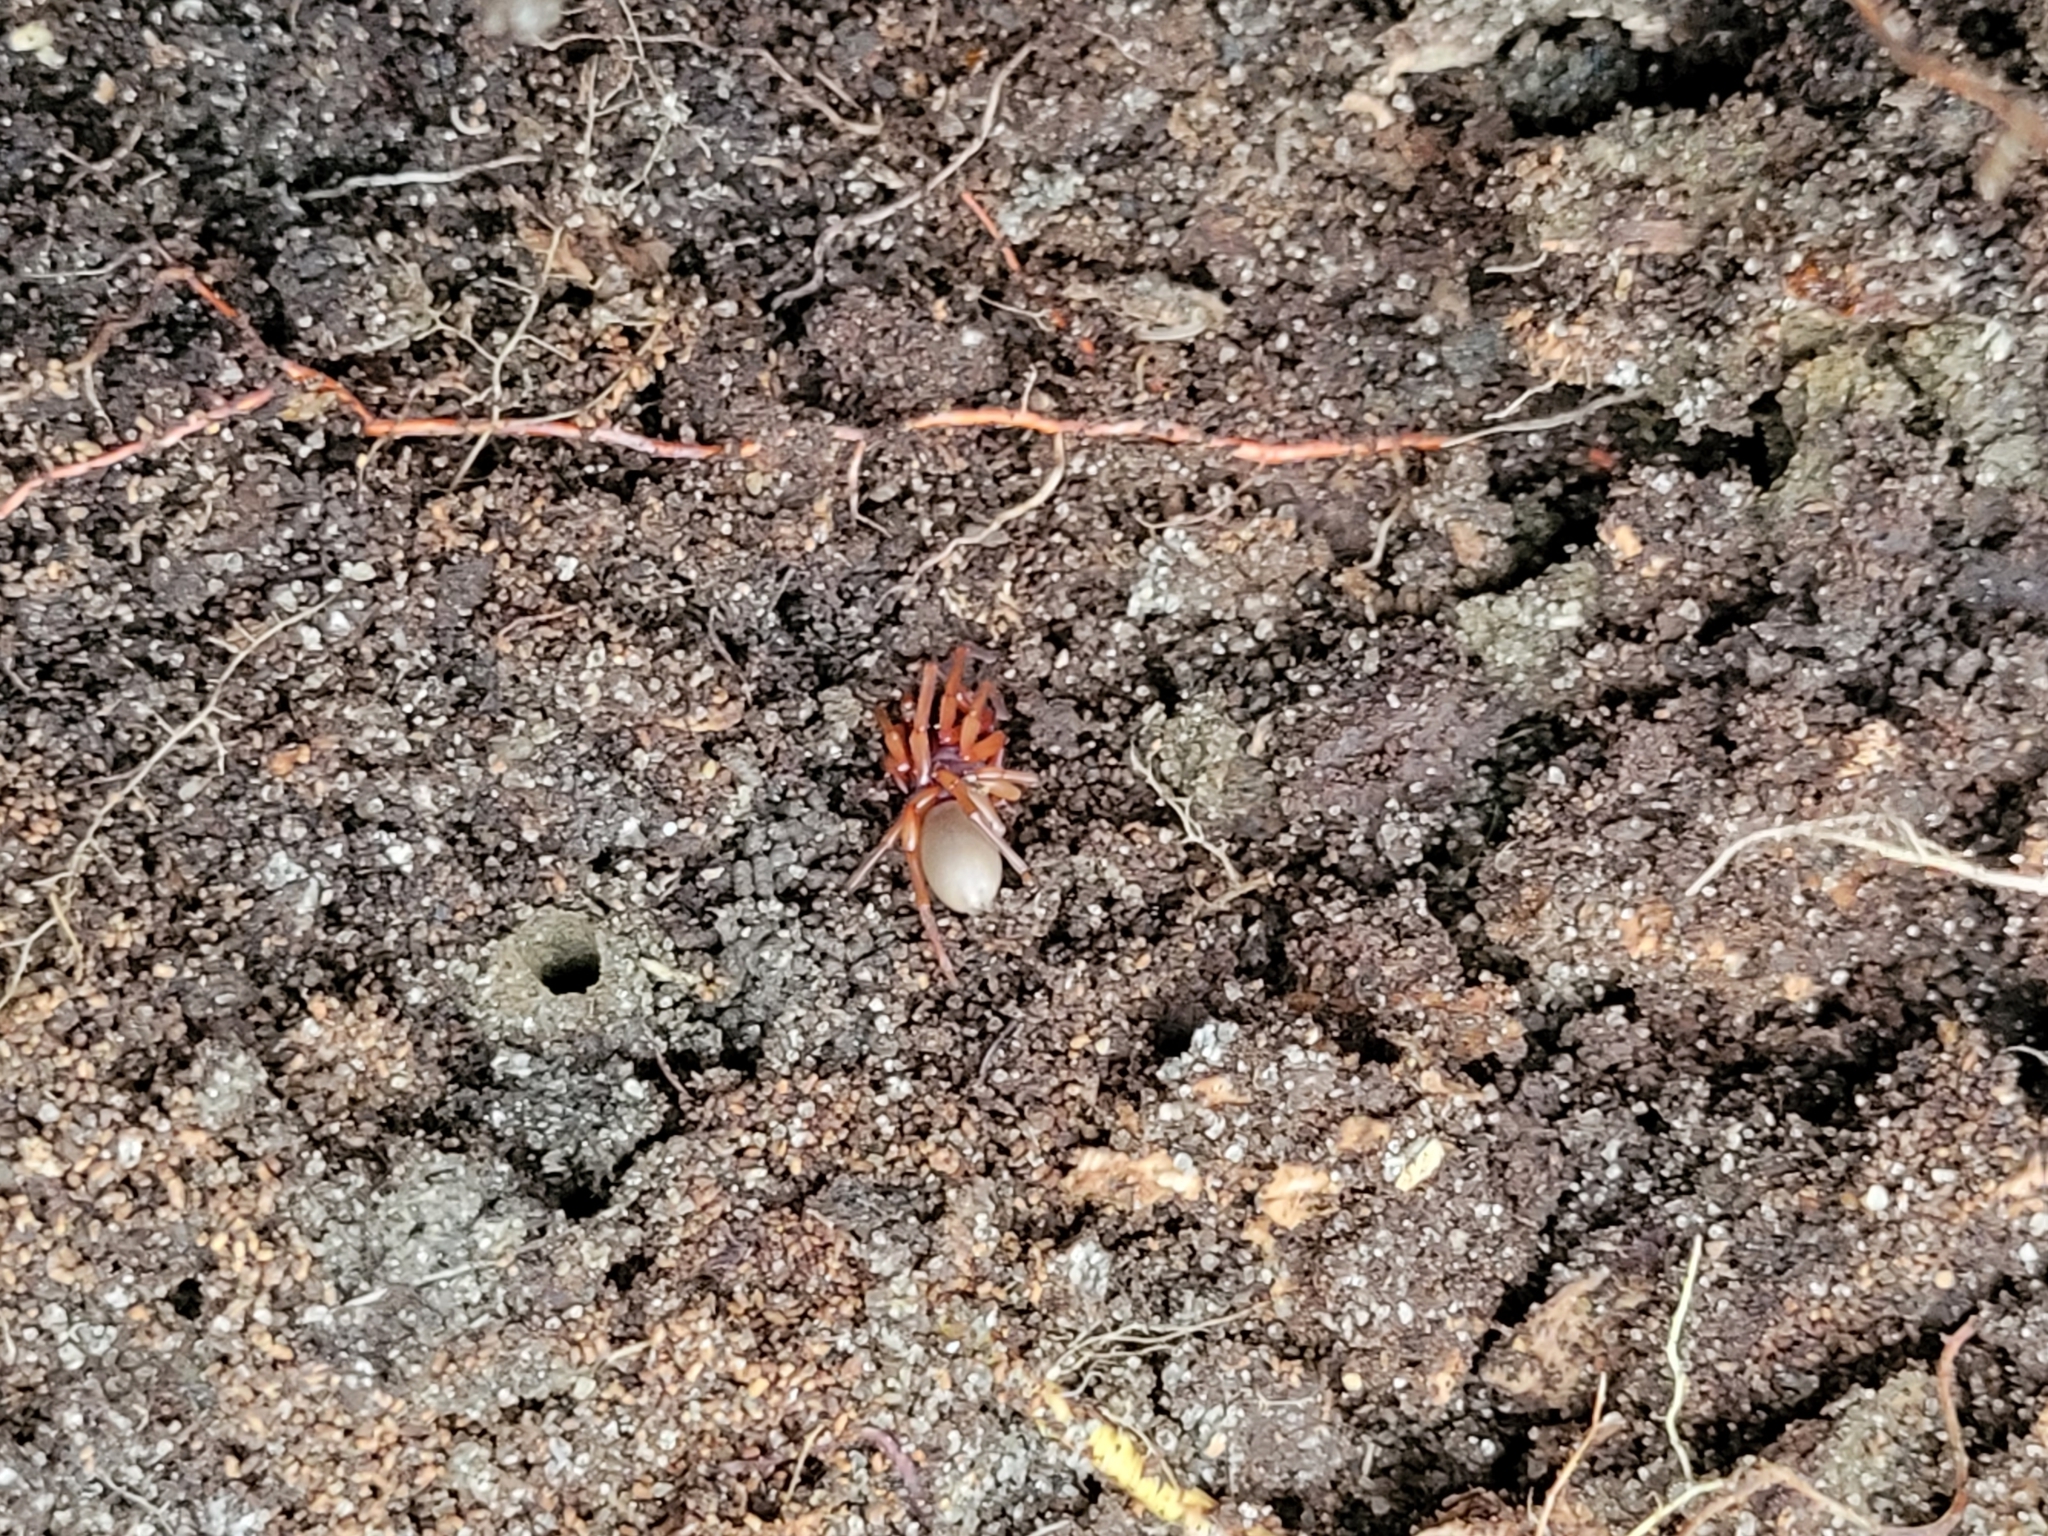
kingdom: Animalia
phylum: Arthropoda
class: Arachnida
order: Araneae
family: Dysderidae
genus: Dysdera
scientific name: Dysdera crocata
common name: Woodlouse spider
